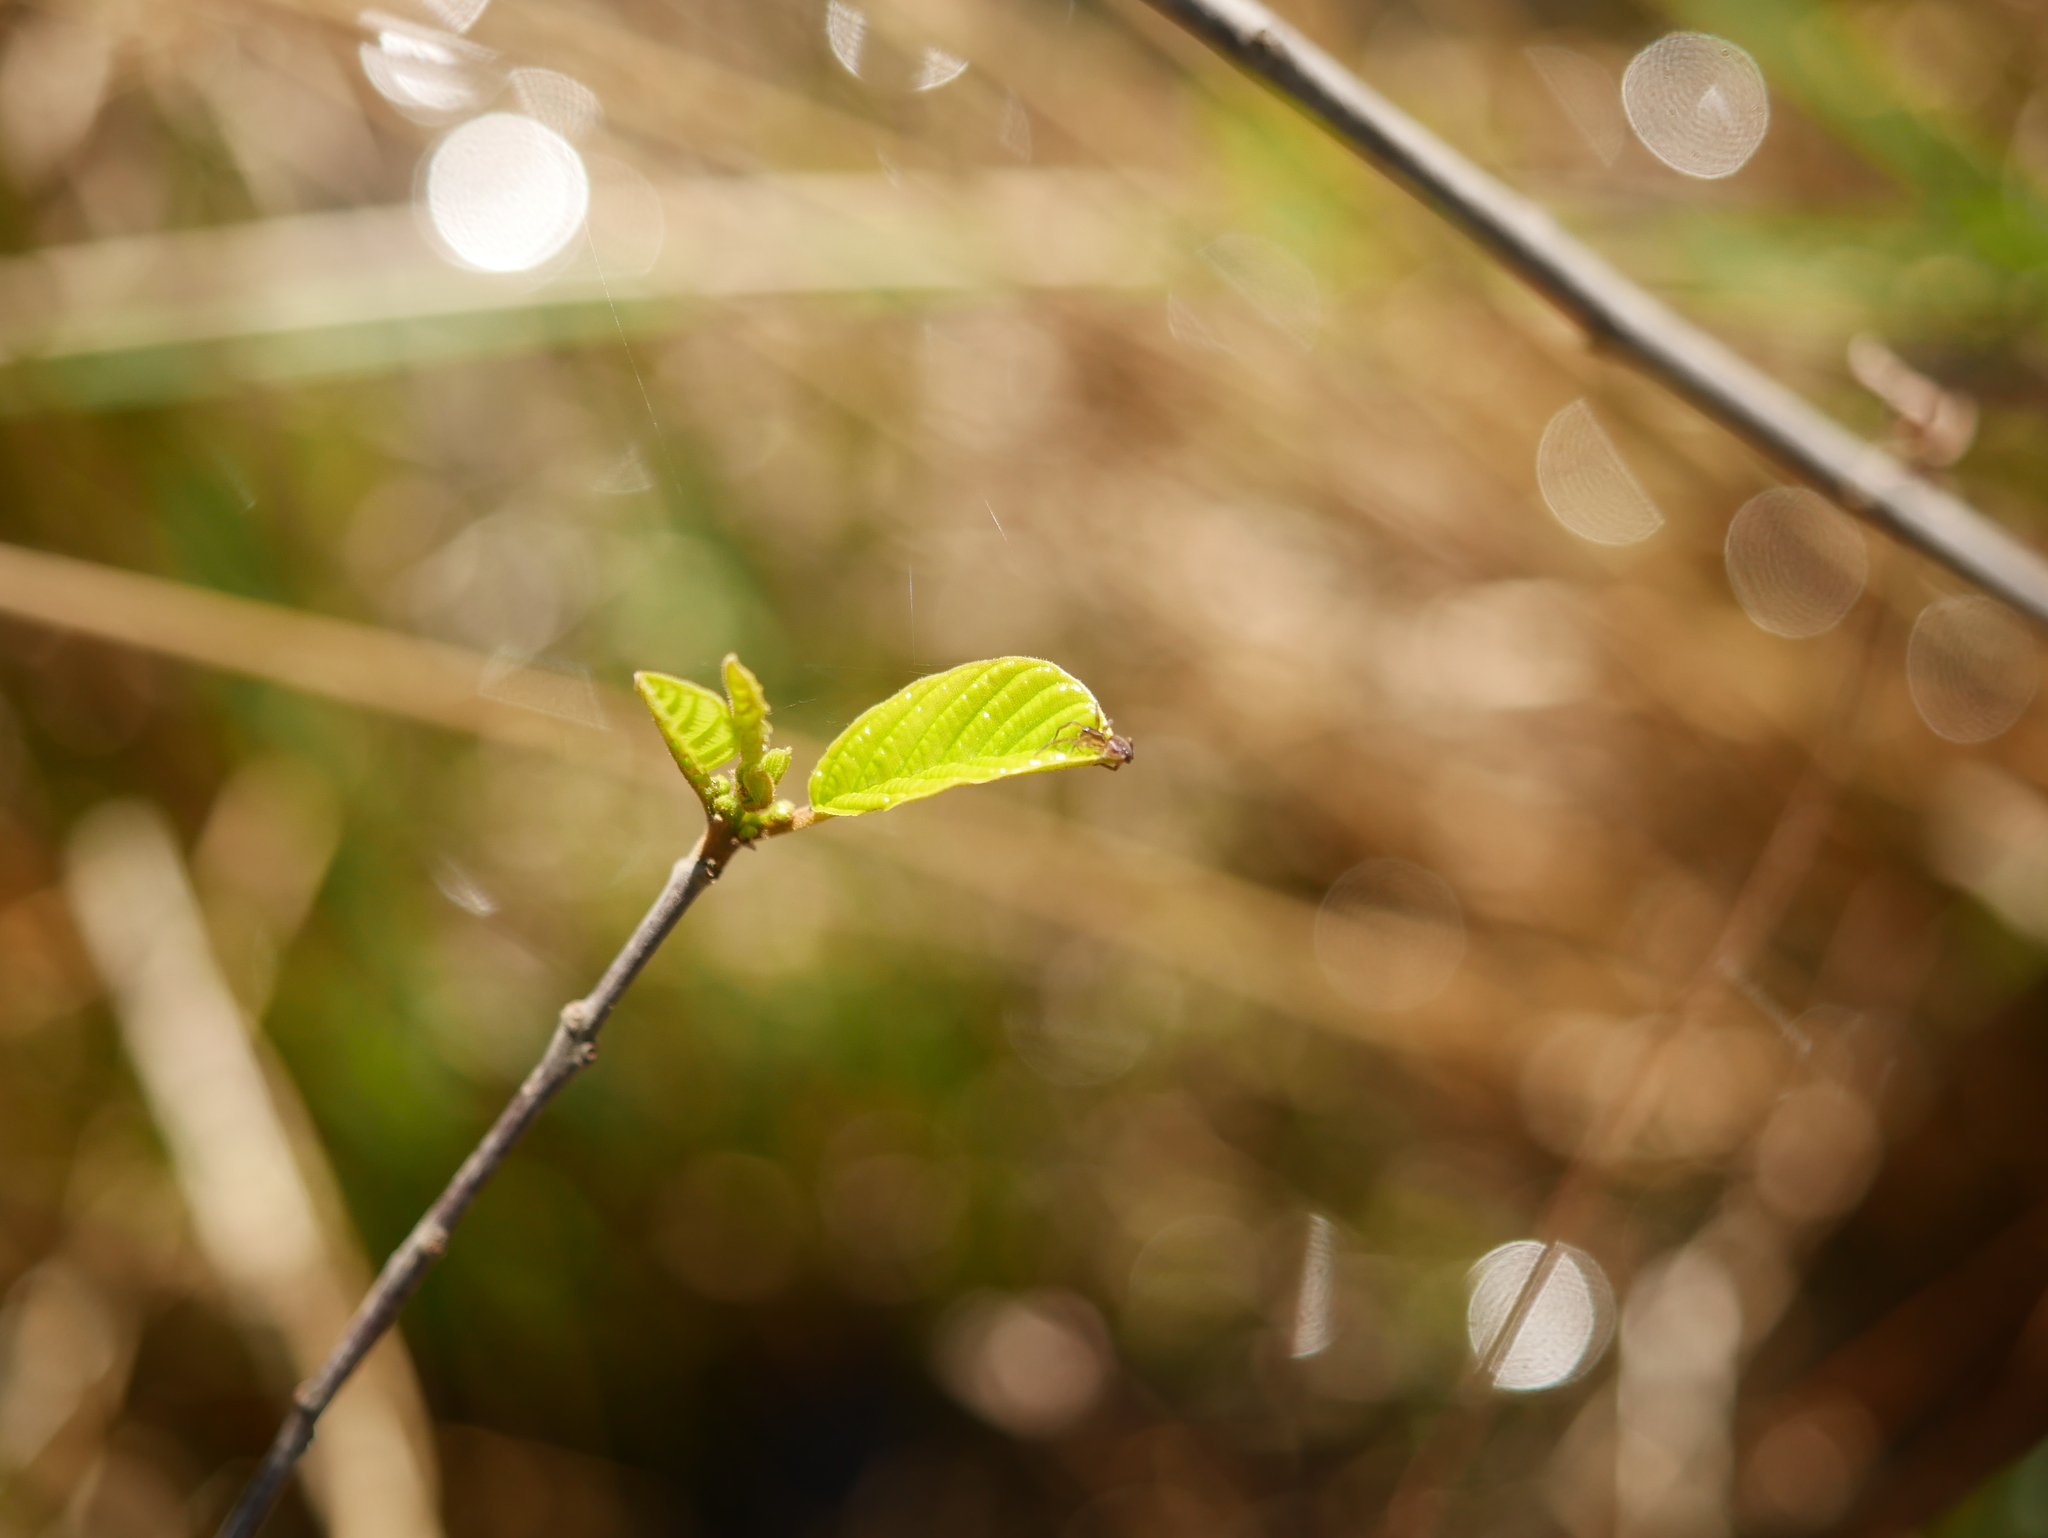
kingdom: Plantae
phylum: Tracheophyta
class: Magnoliopsida
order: Rosales
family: Rhamnaceae
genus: Frangula
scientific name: Frangula alnus
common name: Alder buckthorn
